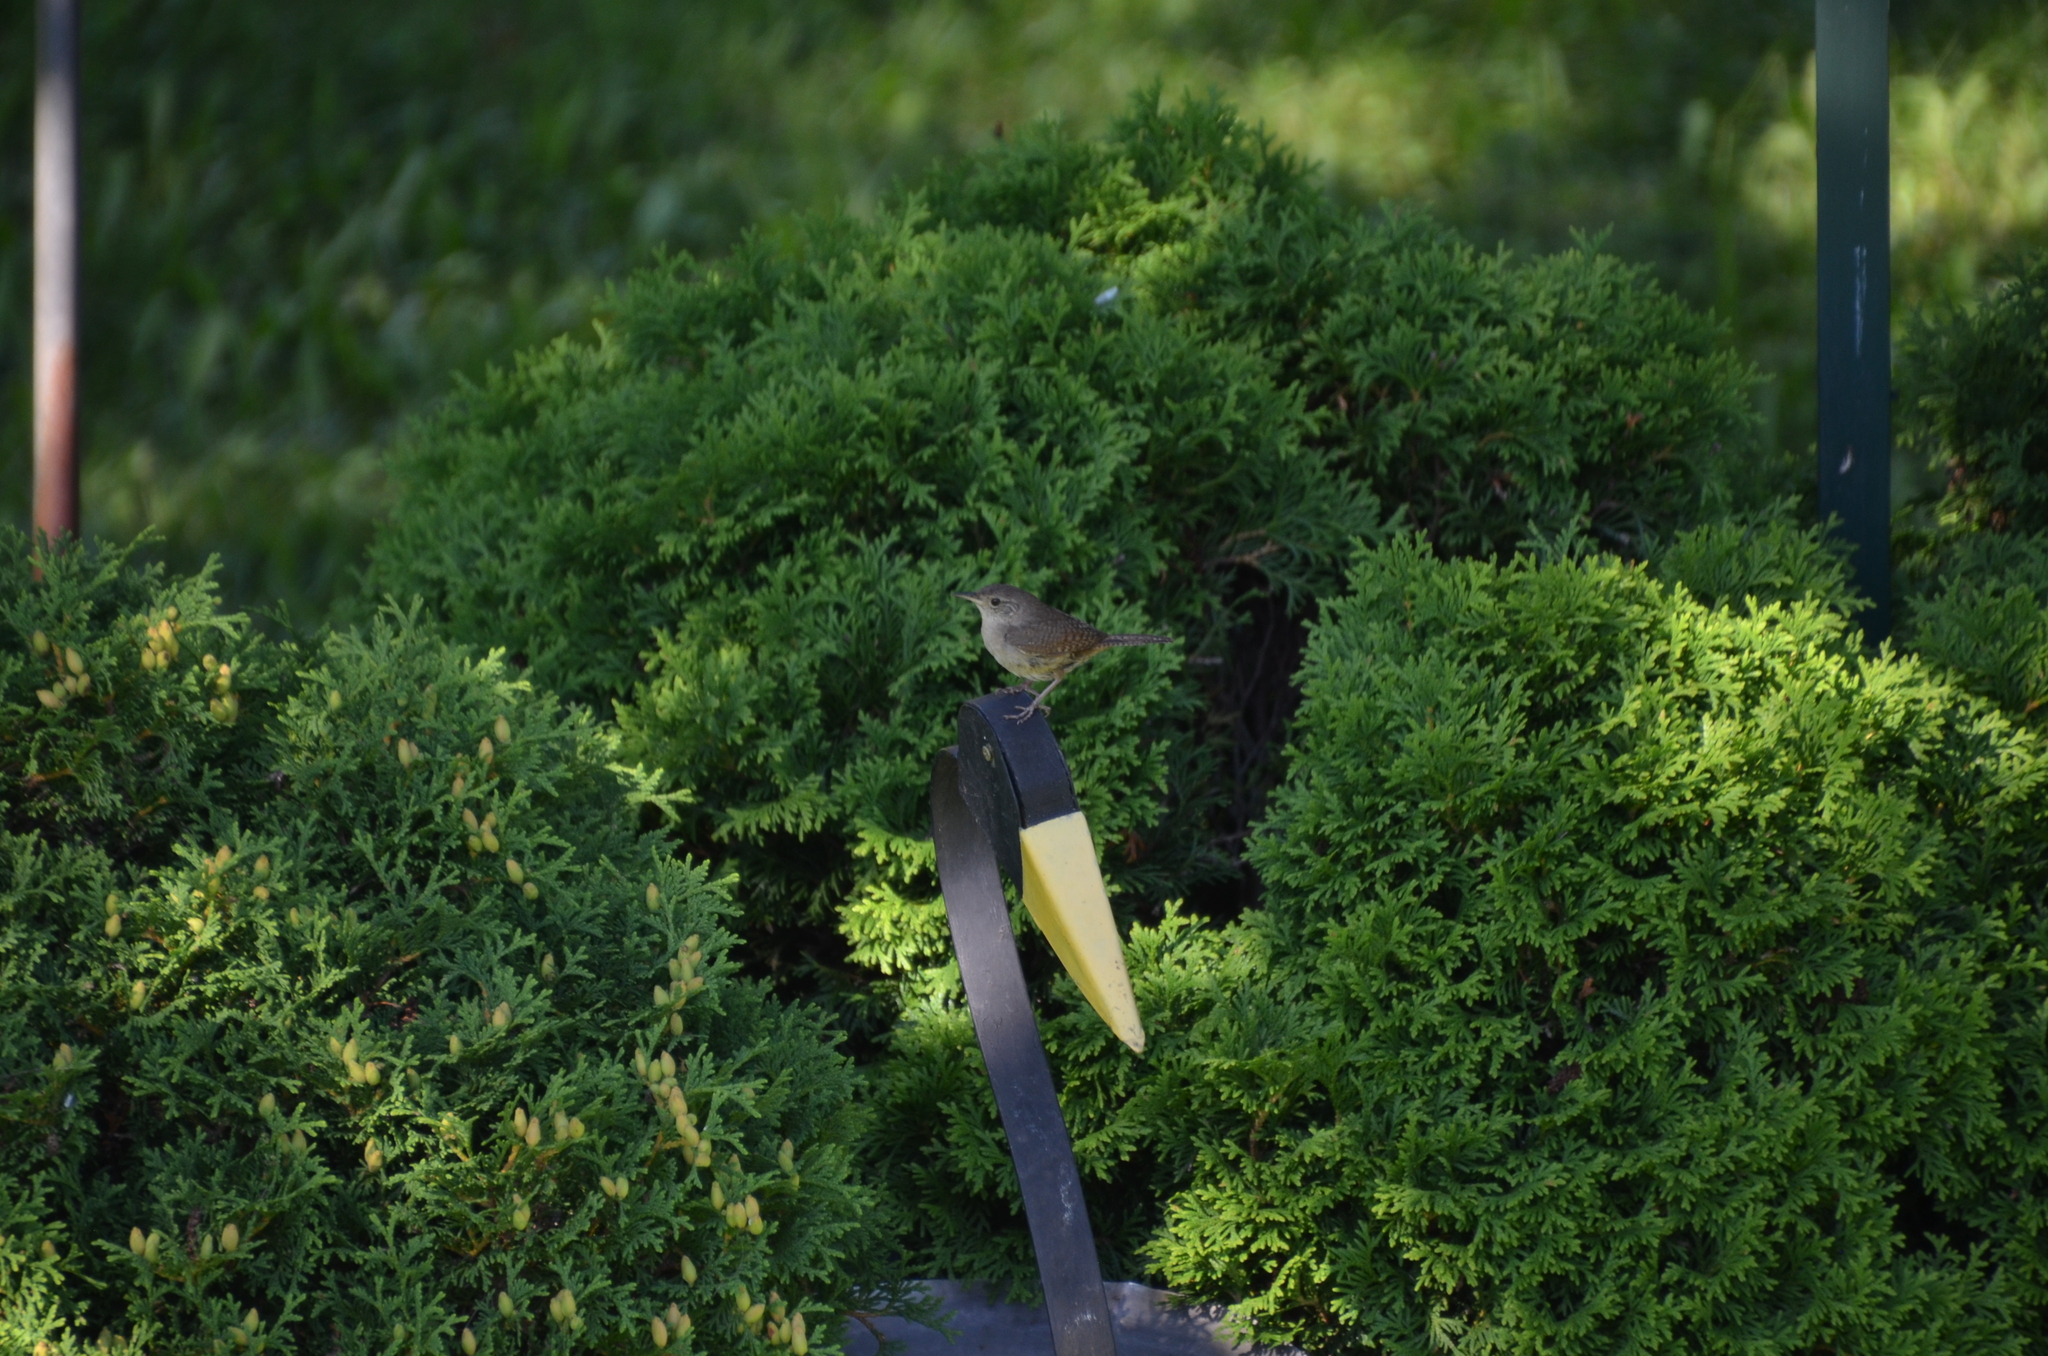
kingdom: Animalia
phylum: Chordata
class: Aves
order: Passeriformes
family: Troglodytidae
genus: Troglodytes
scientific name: Troglodytes aedon
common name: House wren
